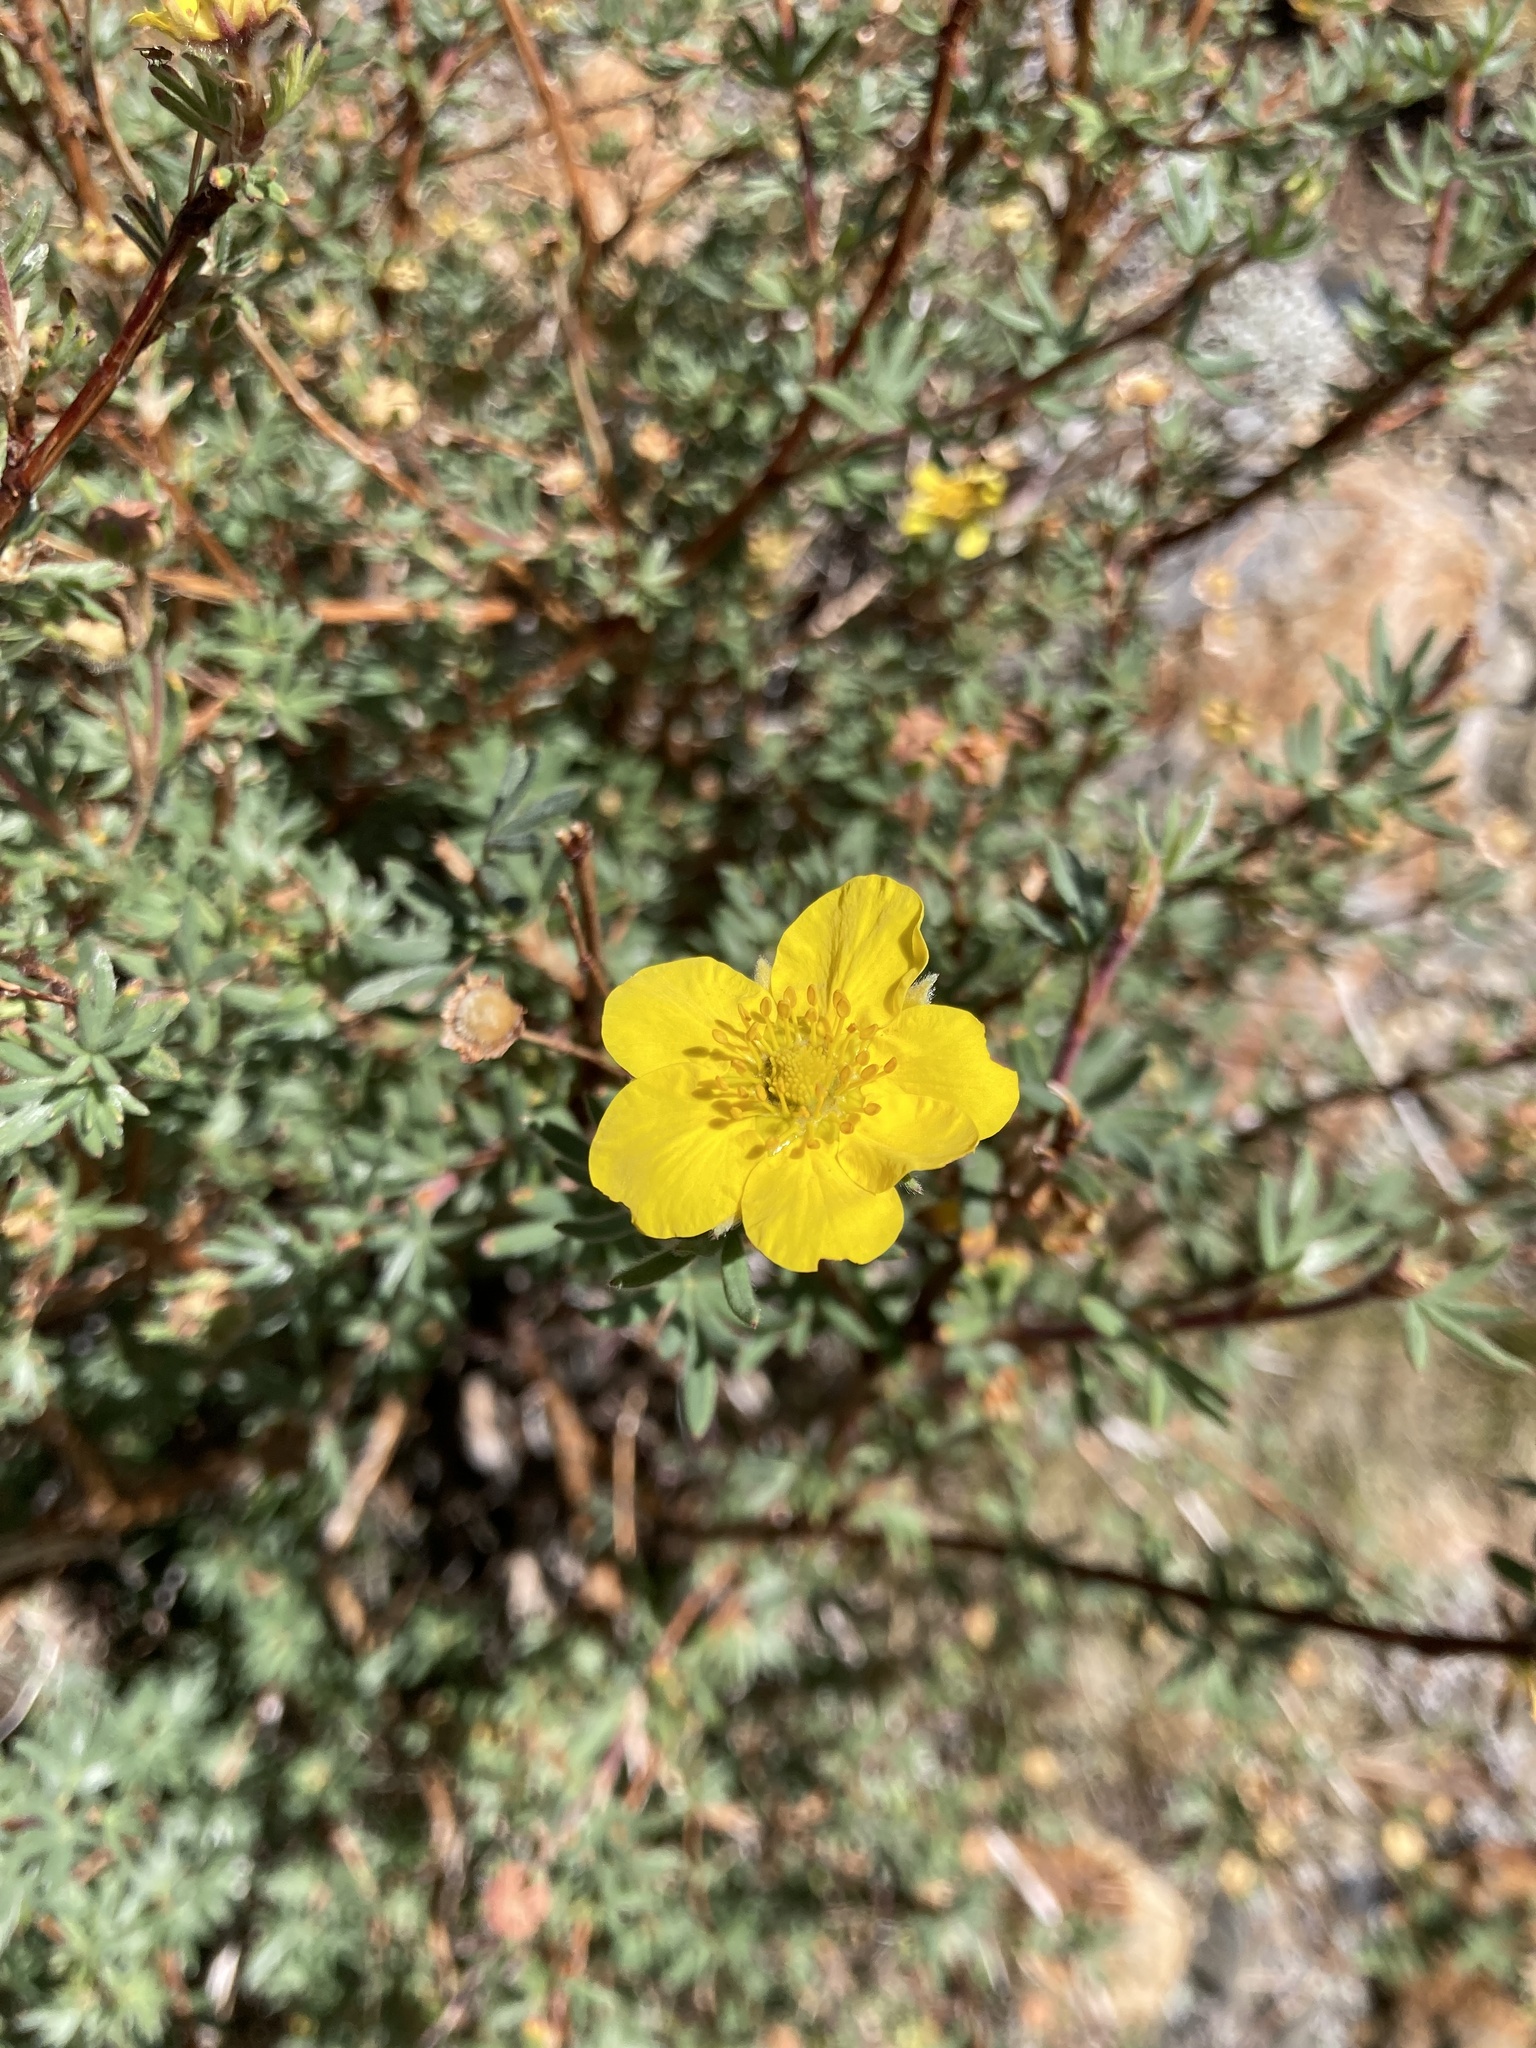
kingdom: Plantae
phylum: Tracheophyta
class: Magnoliopsida
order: Rosales
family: Rosaceae
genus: Dasiphora
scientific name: Dasiphora fruticosa
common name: Shrubby cinquefoil
